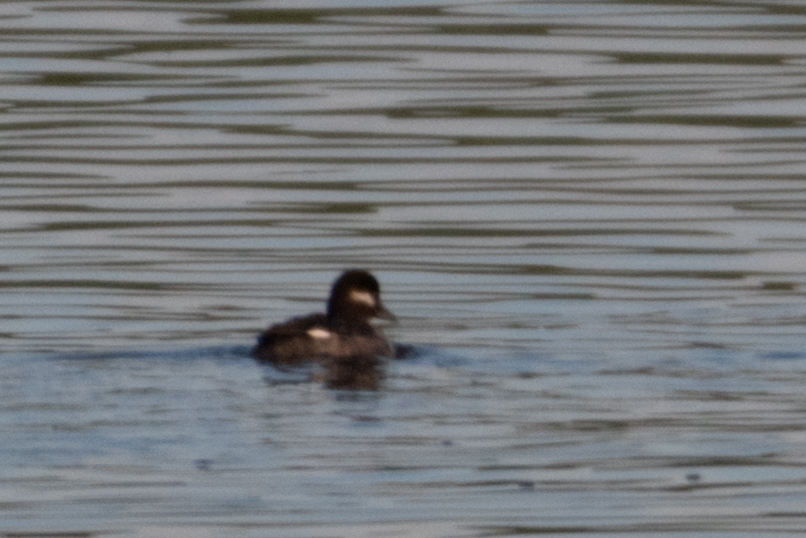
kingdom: Animalia
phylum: Chordata
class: Aves
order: Anseriformes
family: Anatidae
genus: Bucephala
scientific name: Bucephala albeola
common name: Bufflehead
